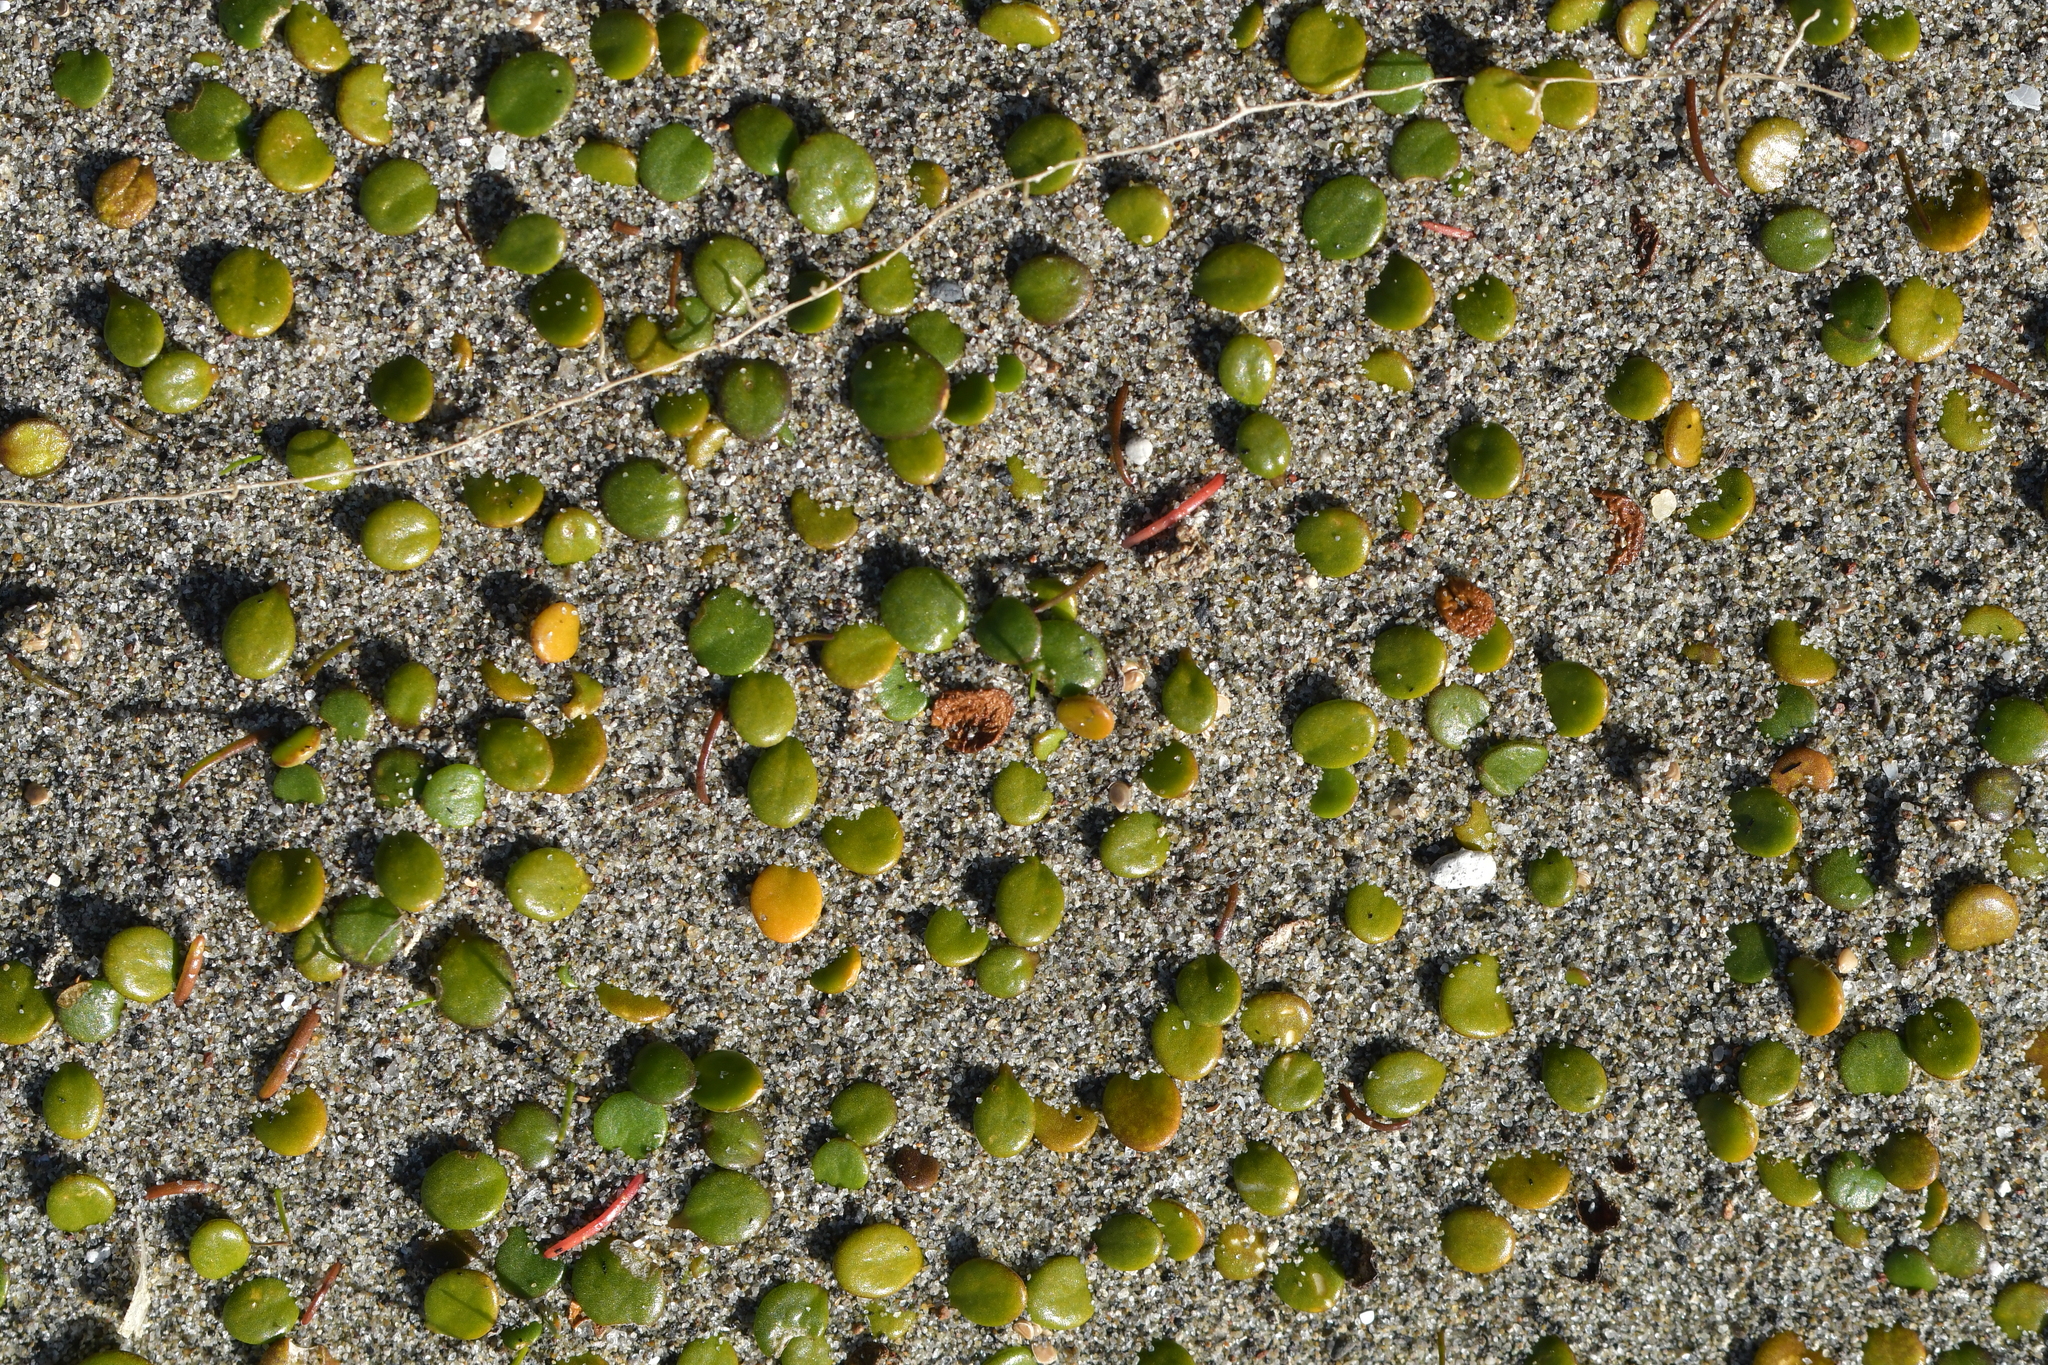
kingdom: Plantae
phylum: Tracheophyta
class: Magnoliopsida
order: Asterales
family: Goodeniaceae
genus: Goodenia
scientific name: Goodenia heenanii
